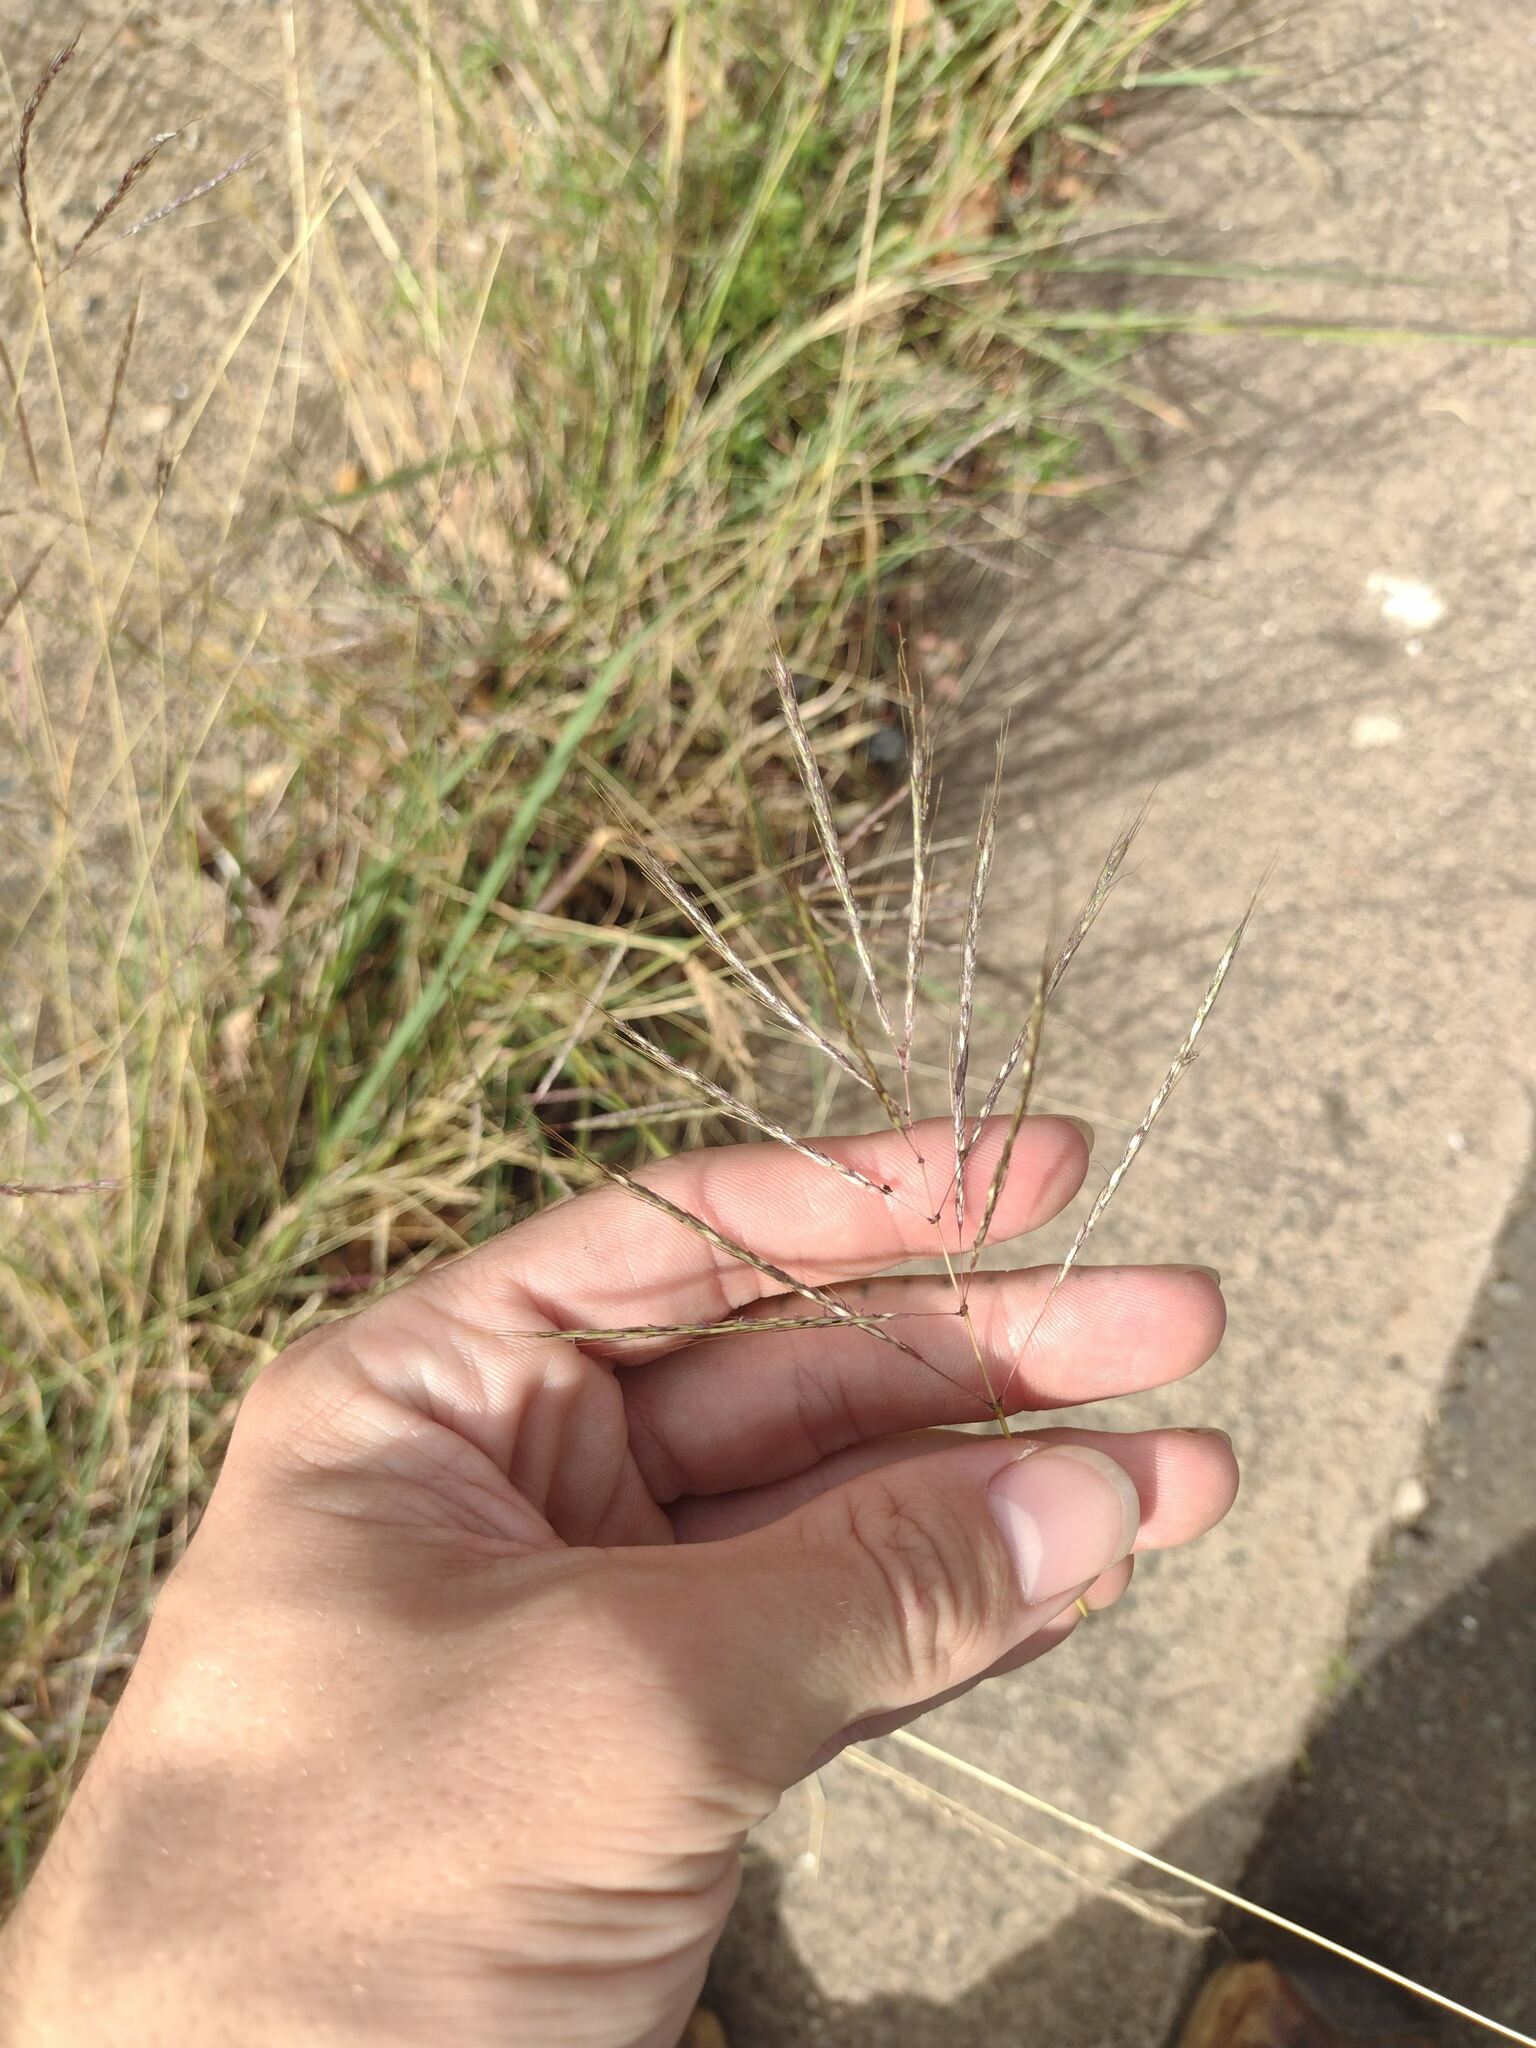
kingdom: Plantae
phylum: Tracheophyta
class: Liliopsida
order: Poales
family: Poaceae
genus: Dichanthium
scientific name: Dichanthium annulatum
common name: Kleberg's bluestem
